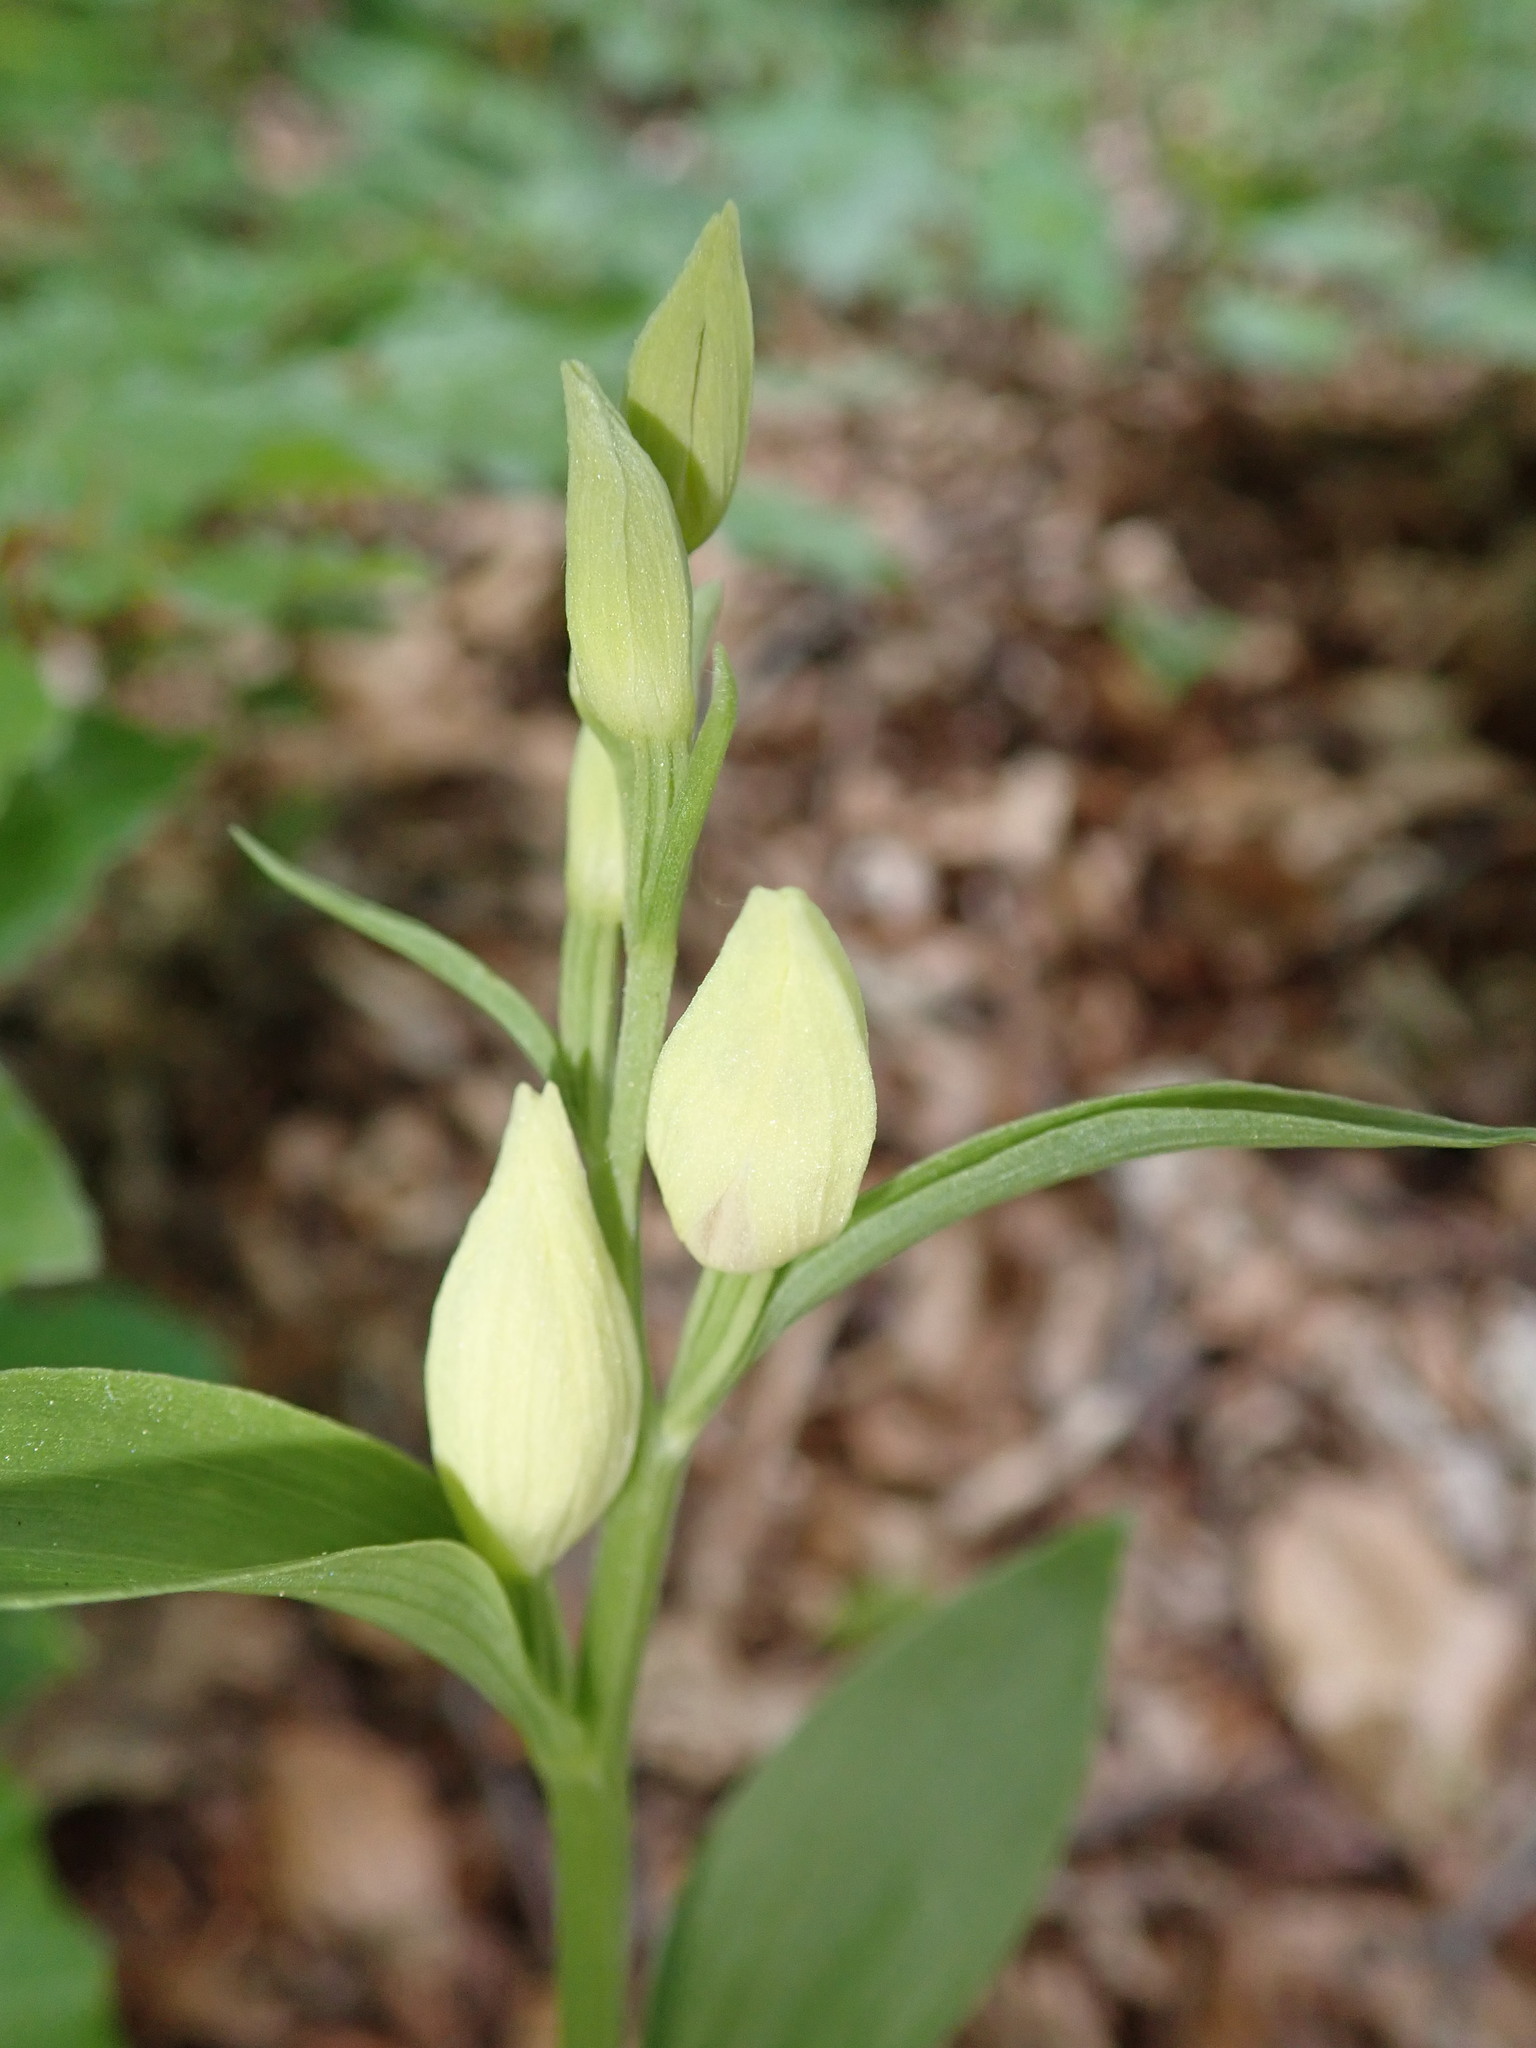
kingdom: Plantae
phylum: Tracheophyta
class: Liliopsida
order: Asparagales
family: Orchidaceae
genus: Cephalanthera
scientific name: Cephalanthera damasonium
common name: White helleborine
